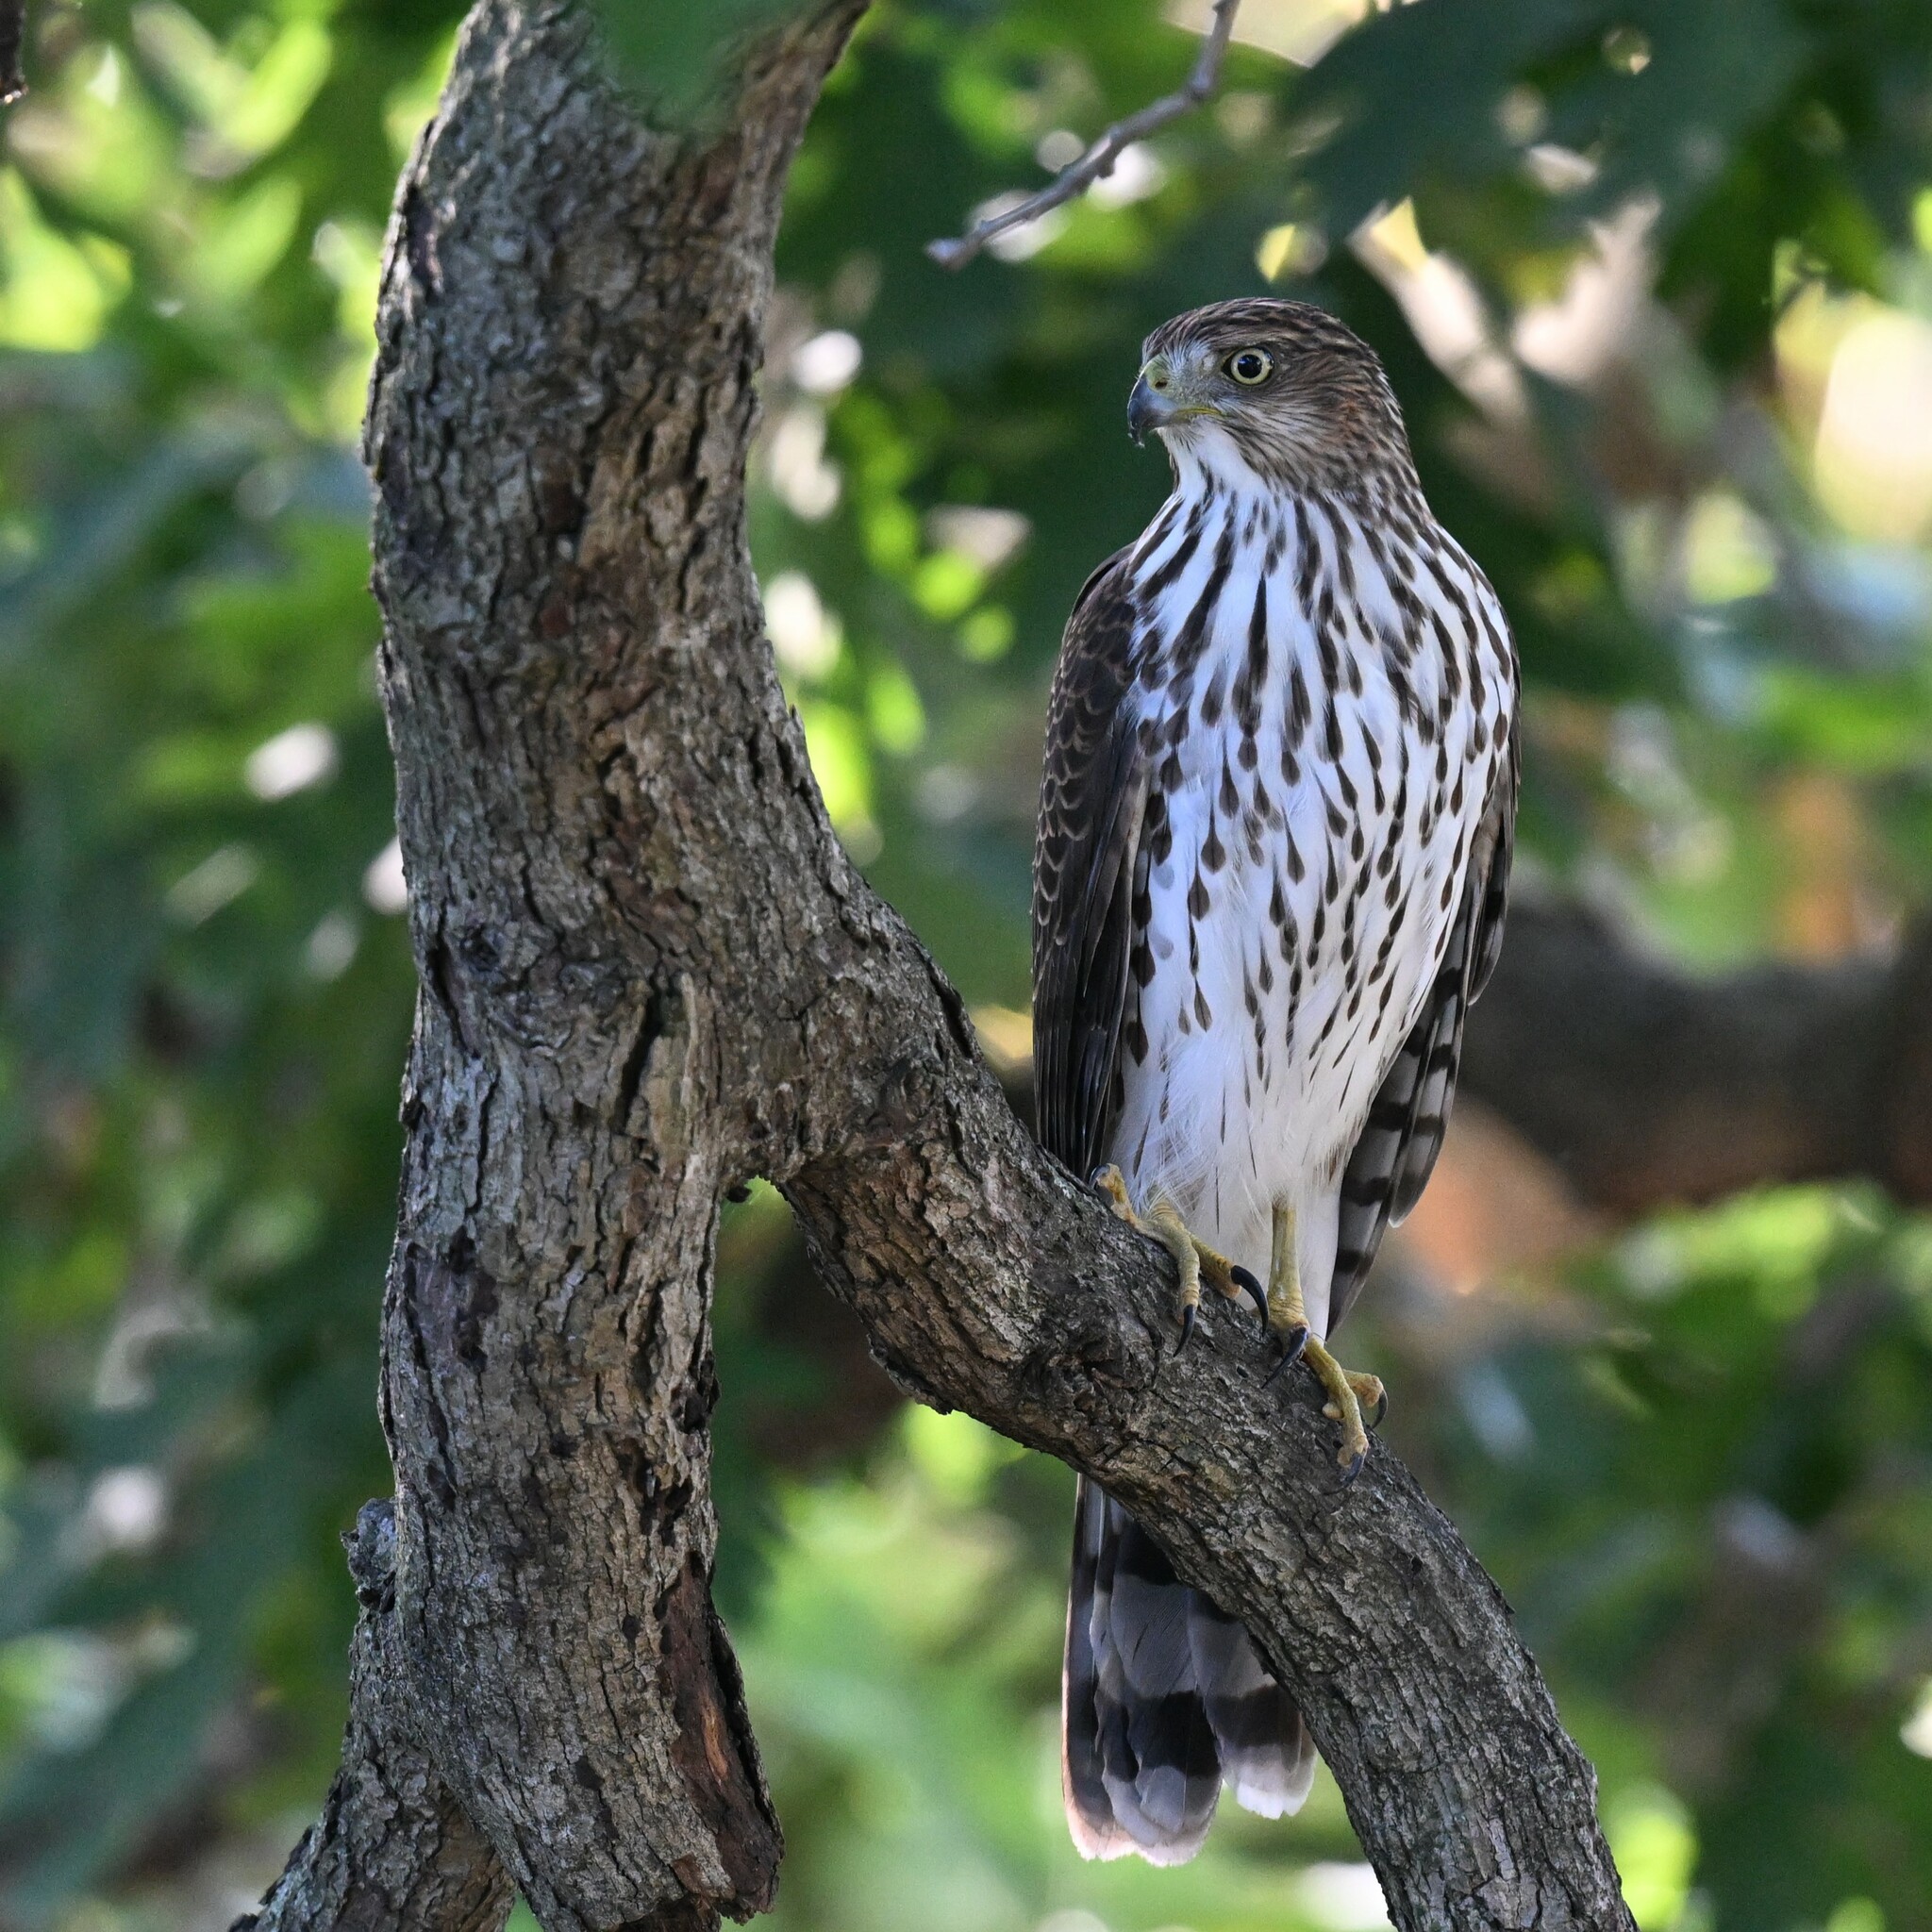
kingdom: Animalia
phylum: Chordata
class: Aves
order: Accipitriformes
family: Accipitridae
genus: Accipiter
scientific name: Accipiter cooperii
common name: Cooper's hawk
